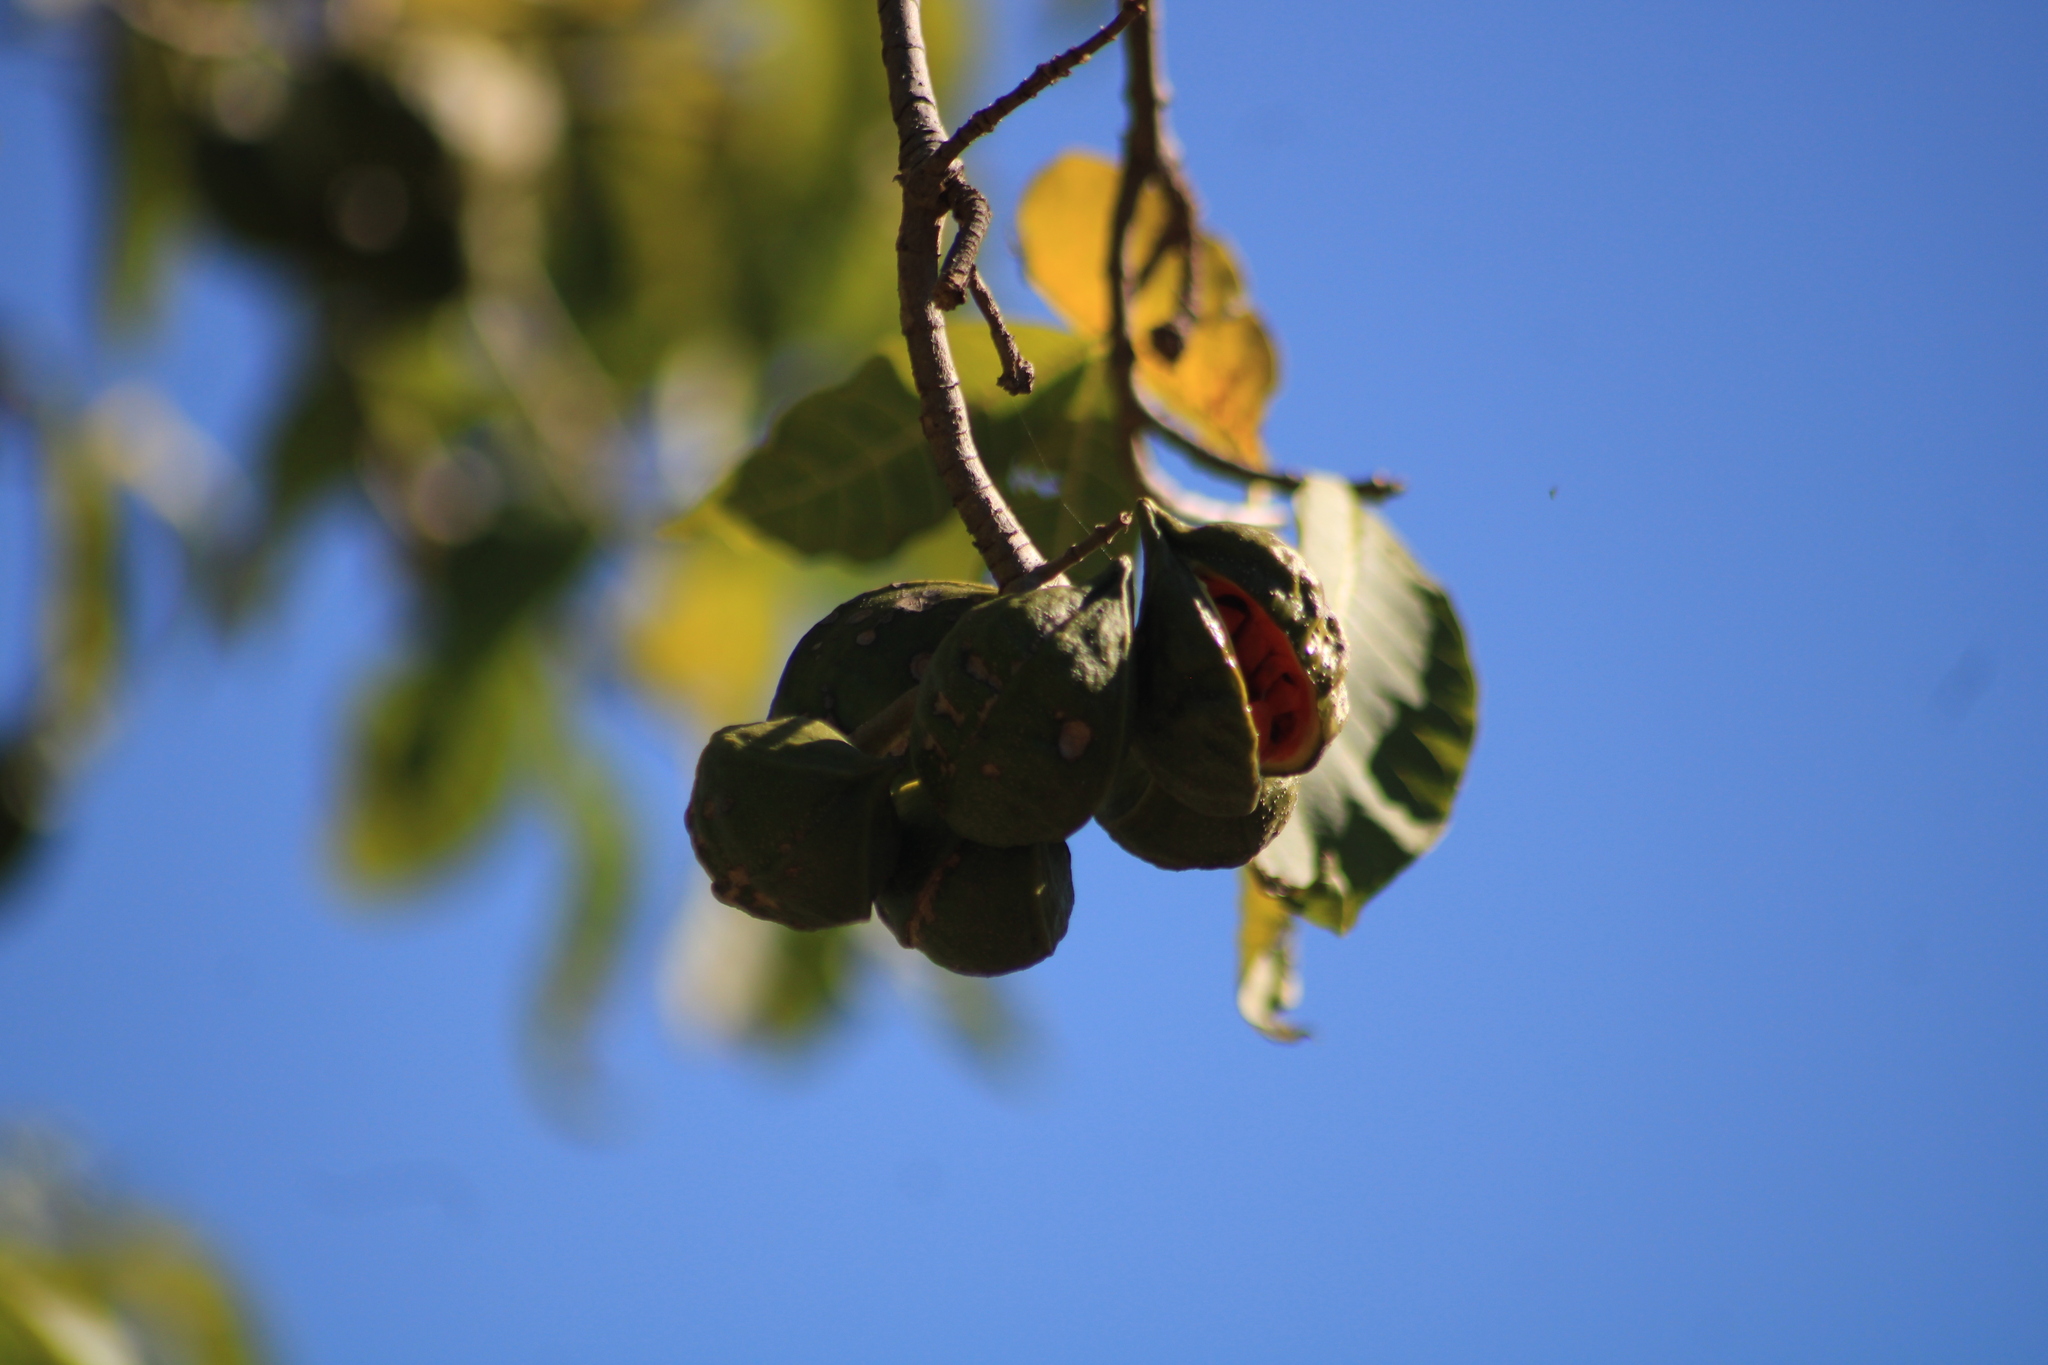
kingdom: Plantae
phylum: Tracheophyta
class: Magnoliopsida
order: Gentianales
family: Apocynaceae
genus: Tabernaemontana
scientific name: Tabernaemontana tomentosa
